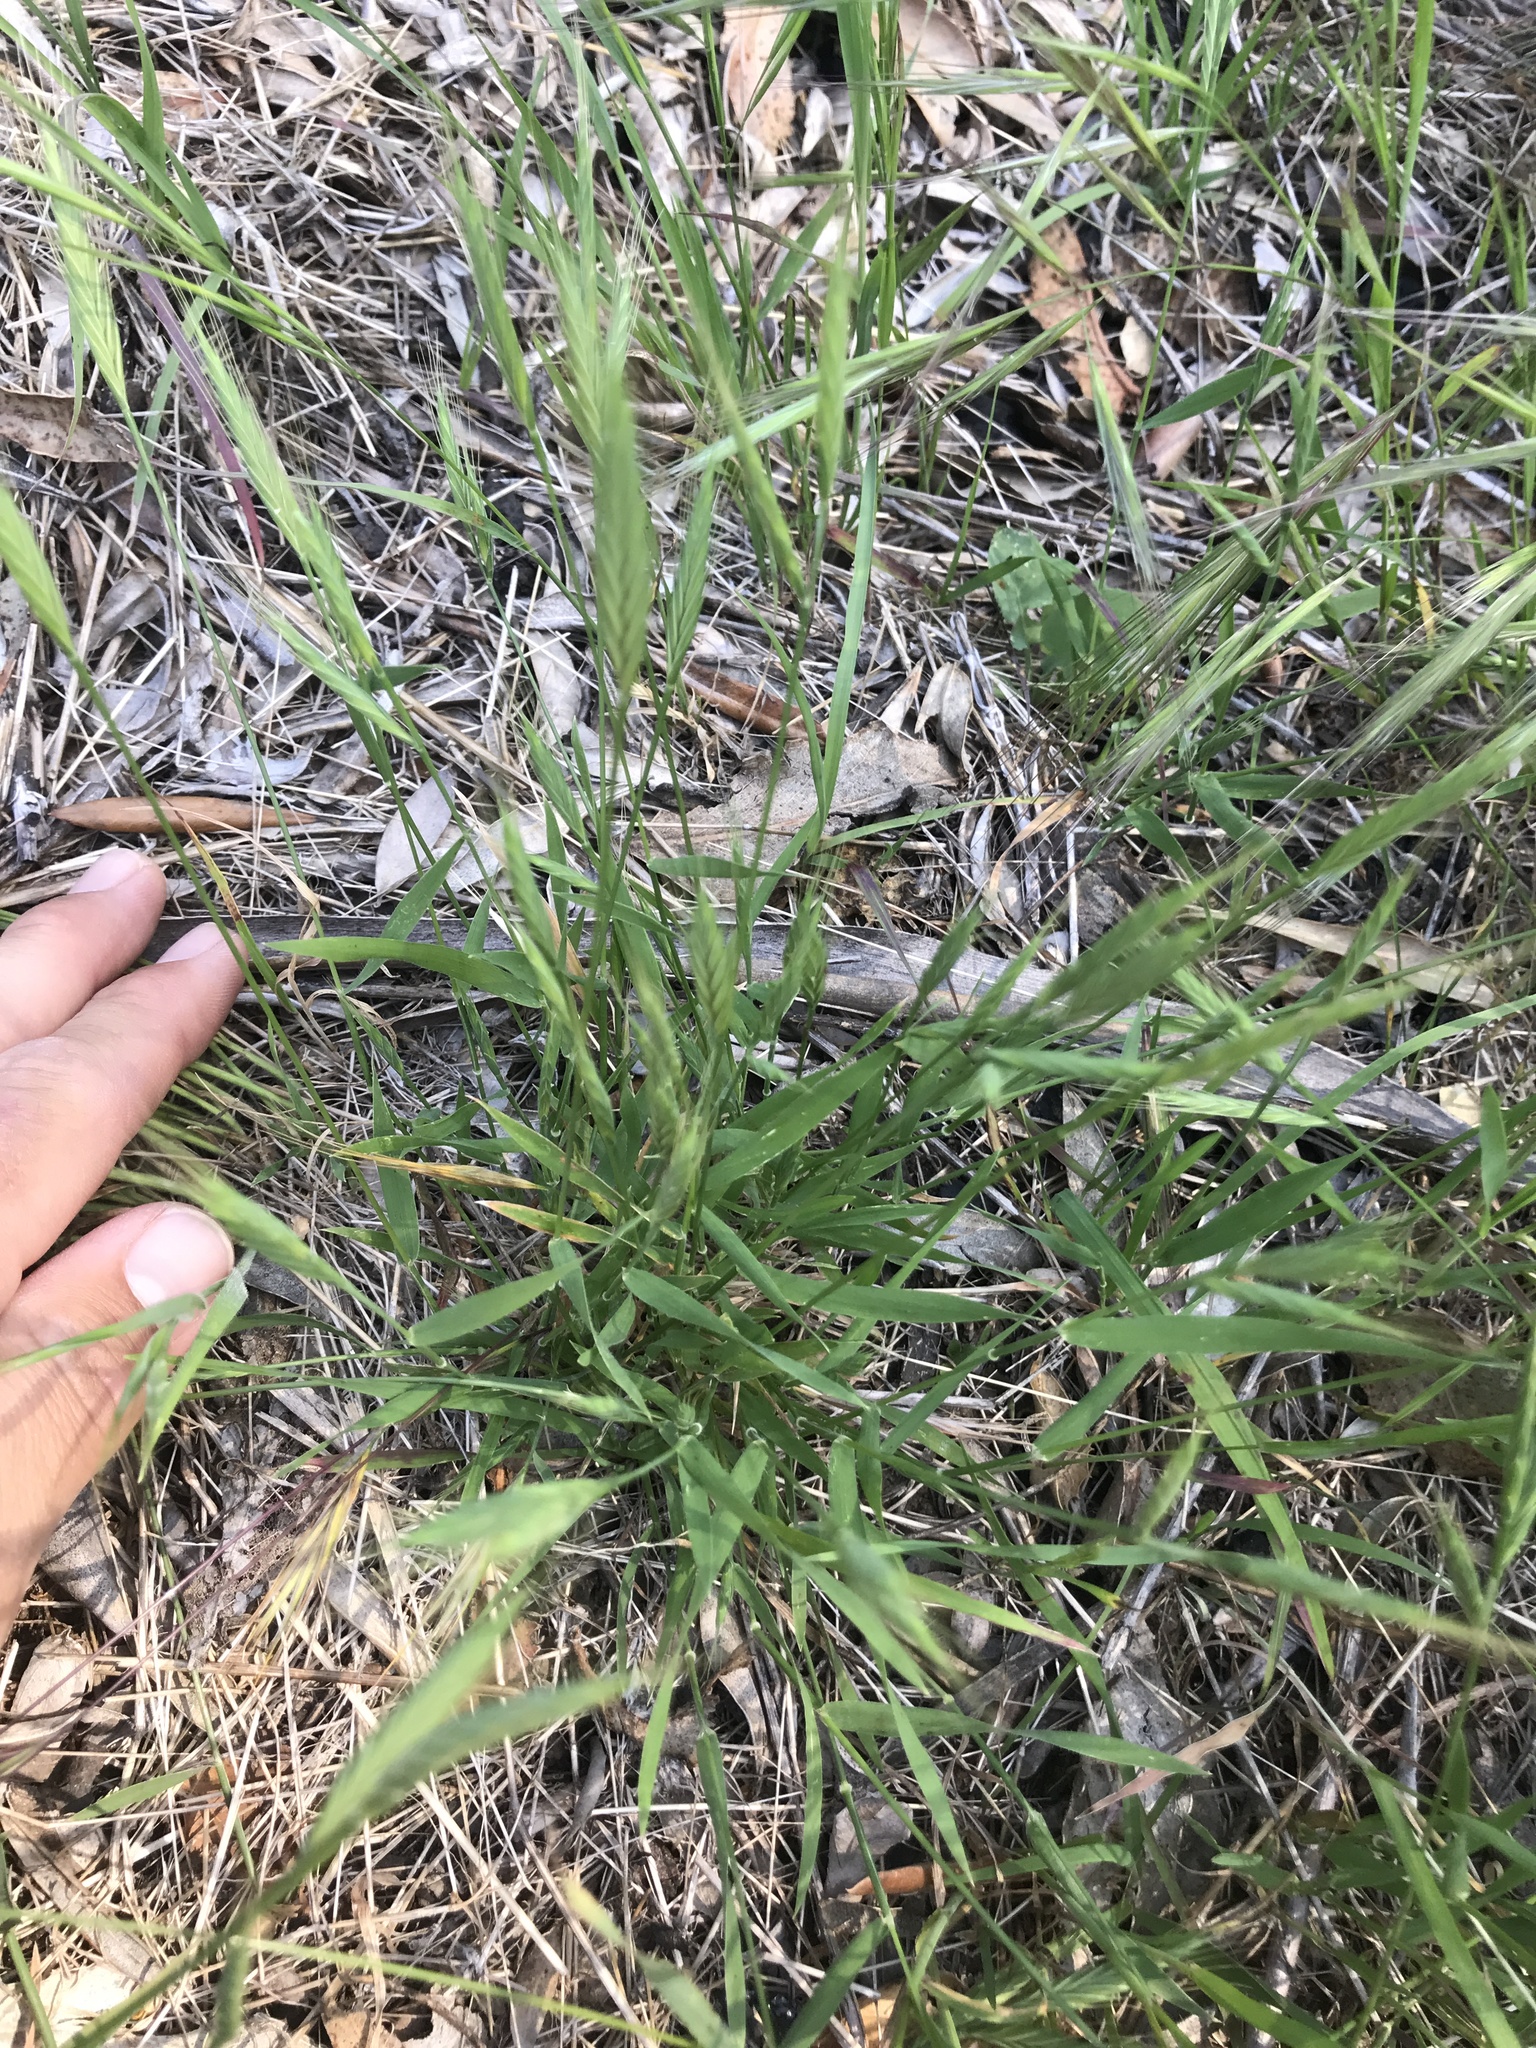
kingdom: Plantae
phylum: Tracheophyta
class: Liliopsida
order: Poales
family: Poaceae
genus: Brachypodium
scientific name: Brachypodium distachyon
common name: Stiff brome
